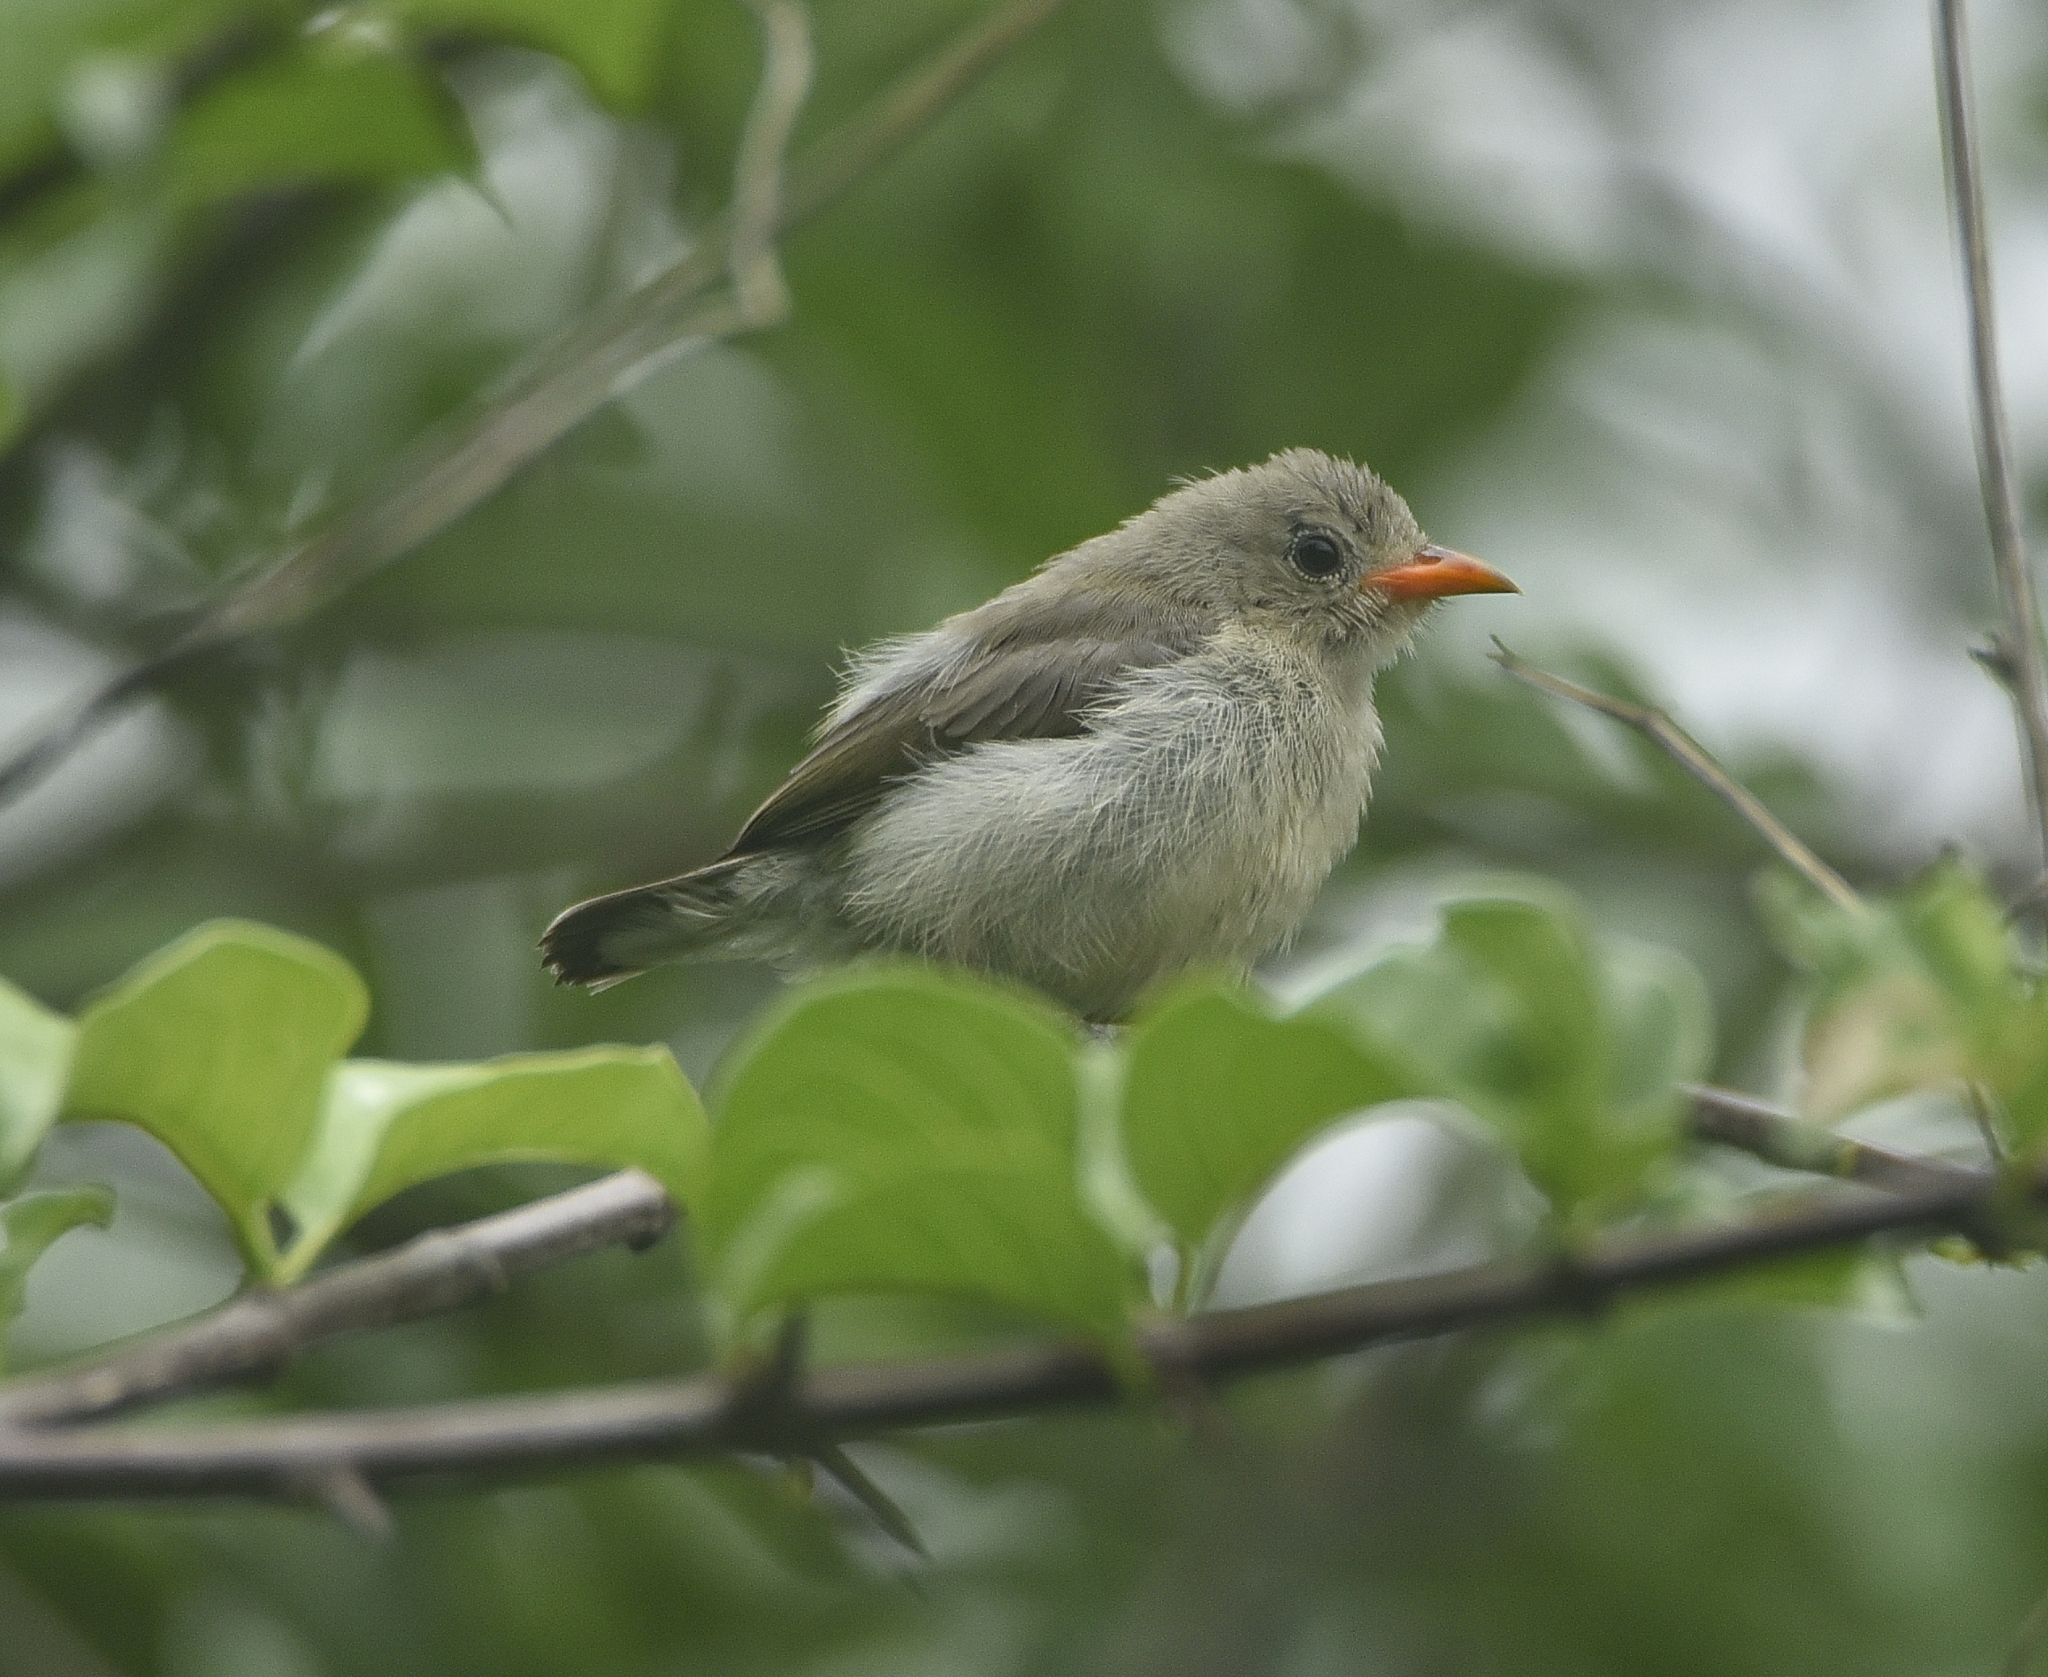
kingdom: Animalia
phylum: Chordata
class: Aves
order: Passeriformes
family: Dicaeidae
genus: Dicaeum
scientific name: Dicaeum erythrorhynchos
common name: Pale-billed flowerpecker
